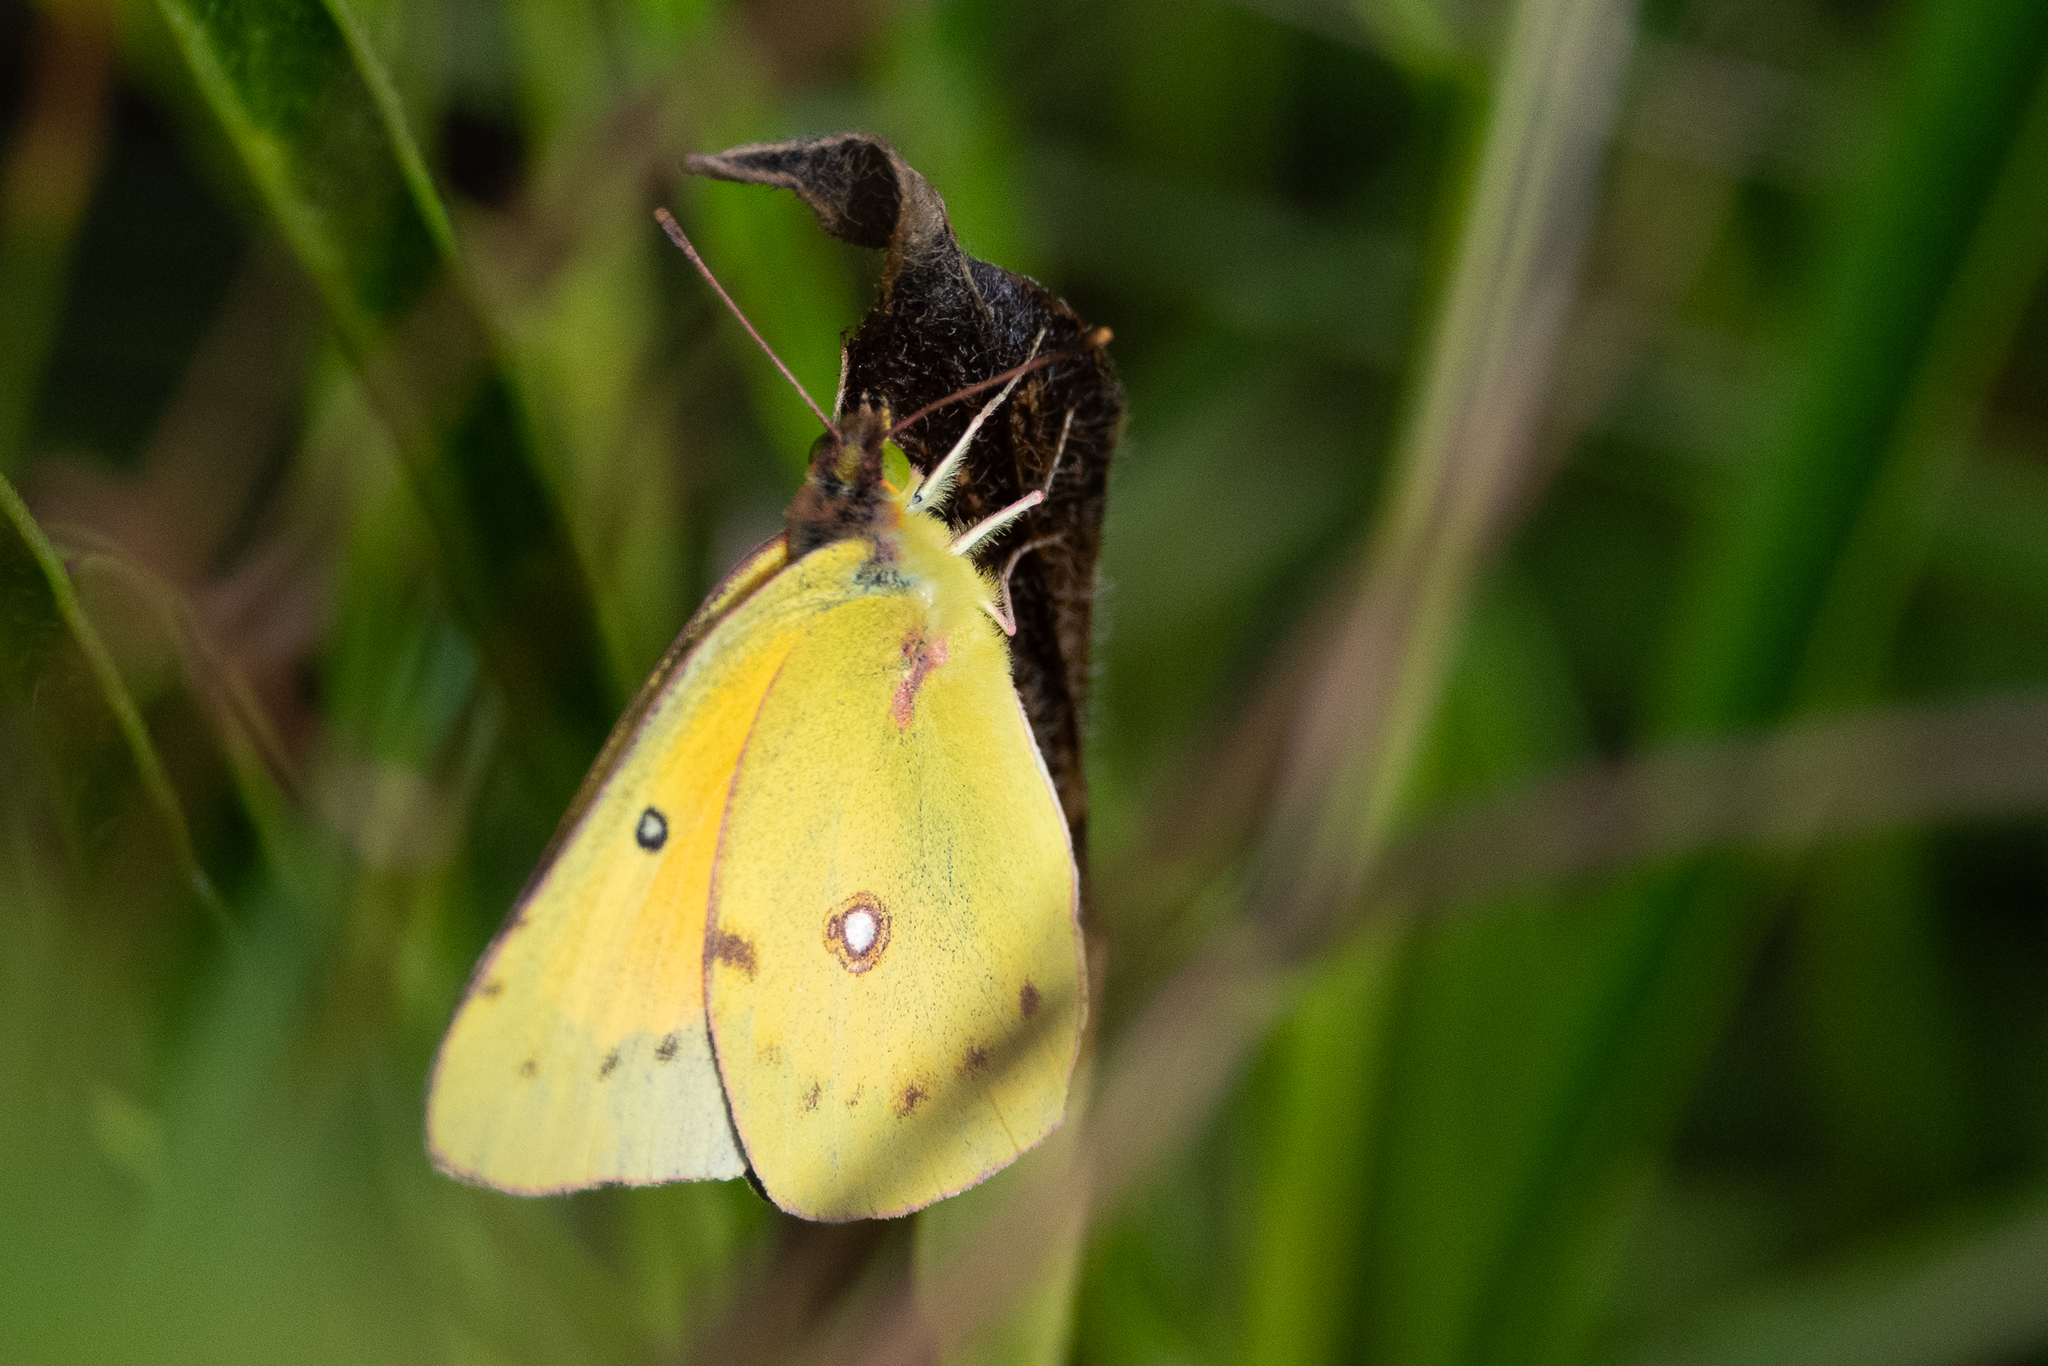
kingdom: Animalia
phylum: Arthropoda
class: Insecta
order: Lepidoptera
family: Pieridae
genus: Colias
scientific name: Colias eurytheme
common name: Alfalfa butterfly
